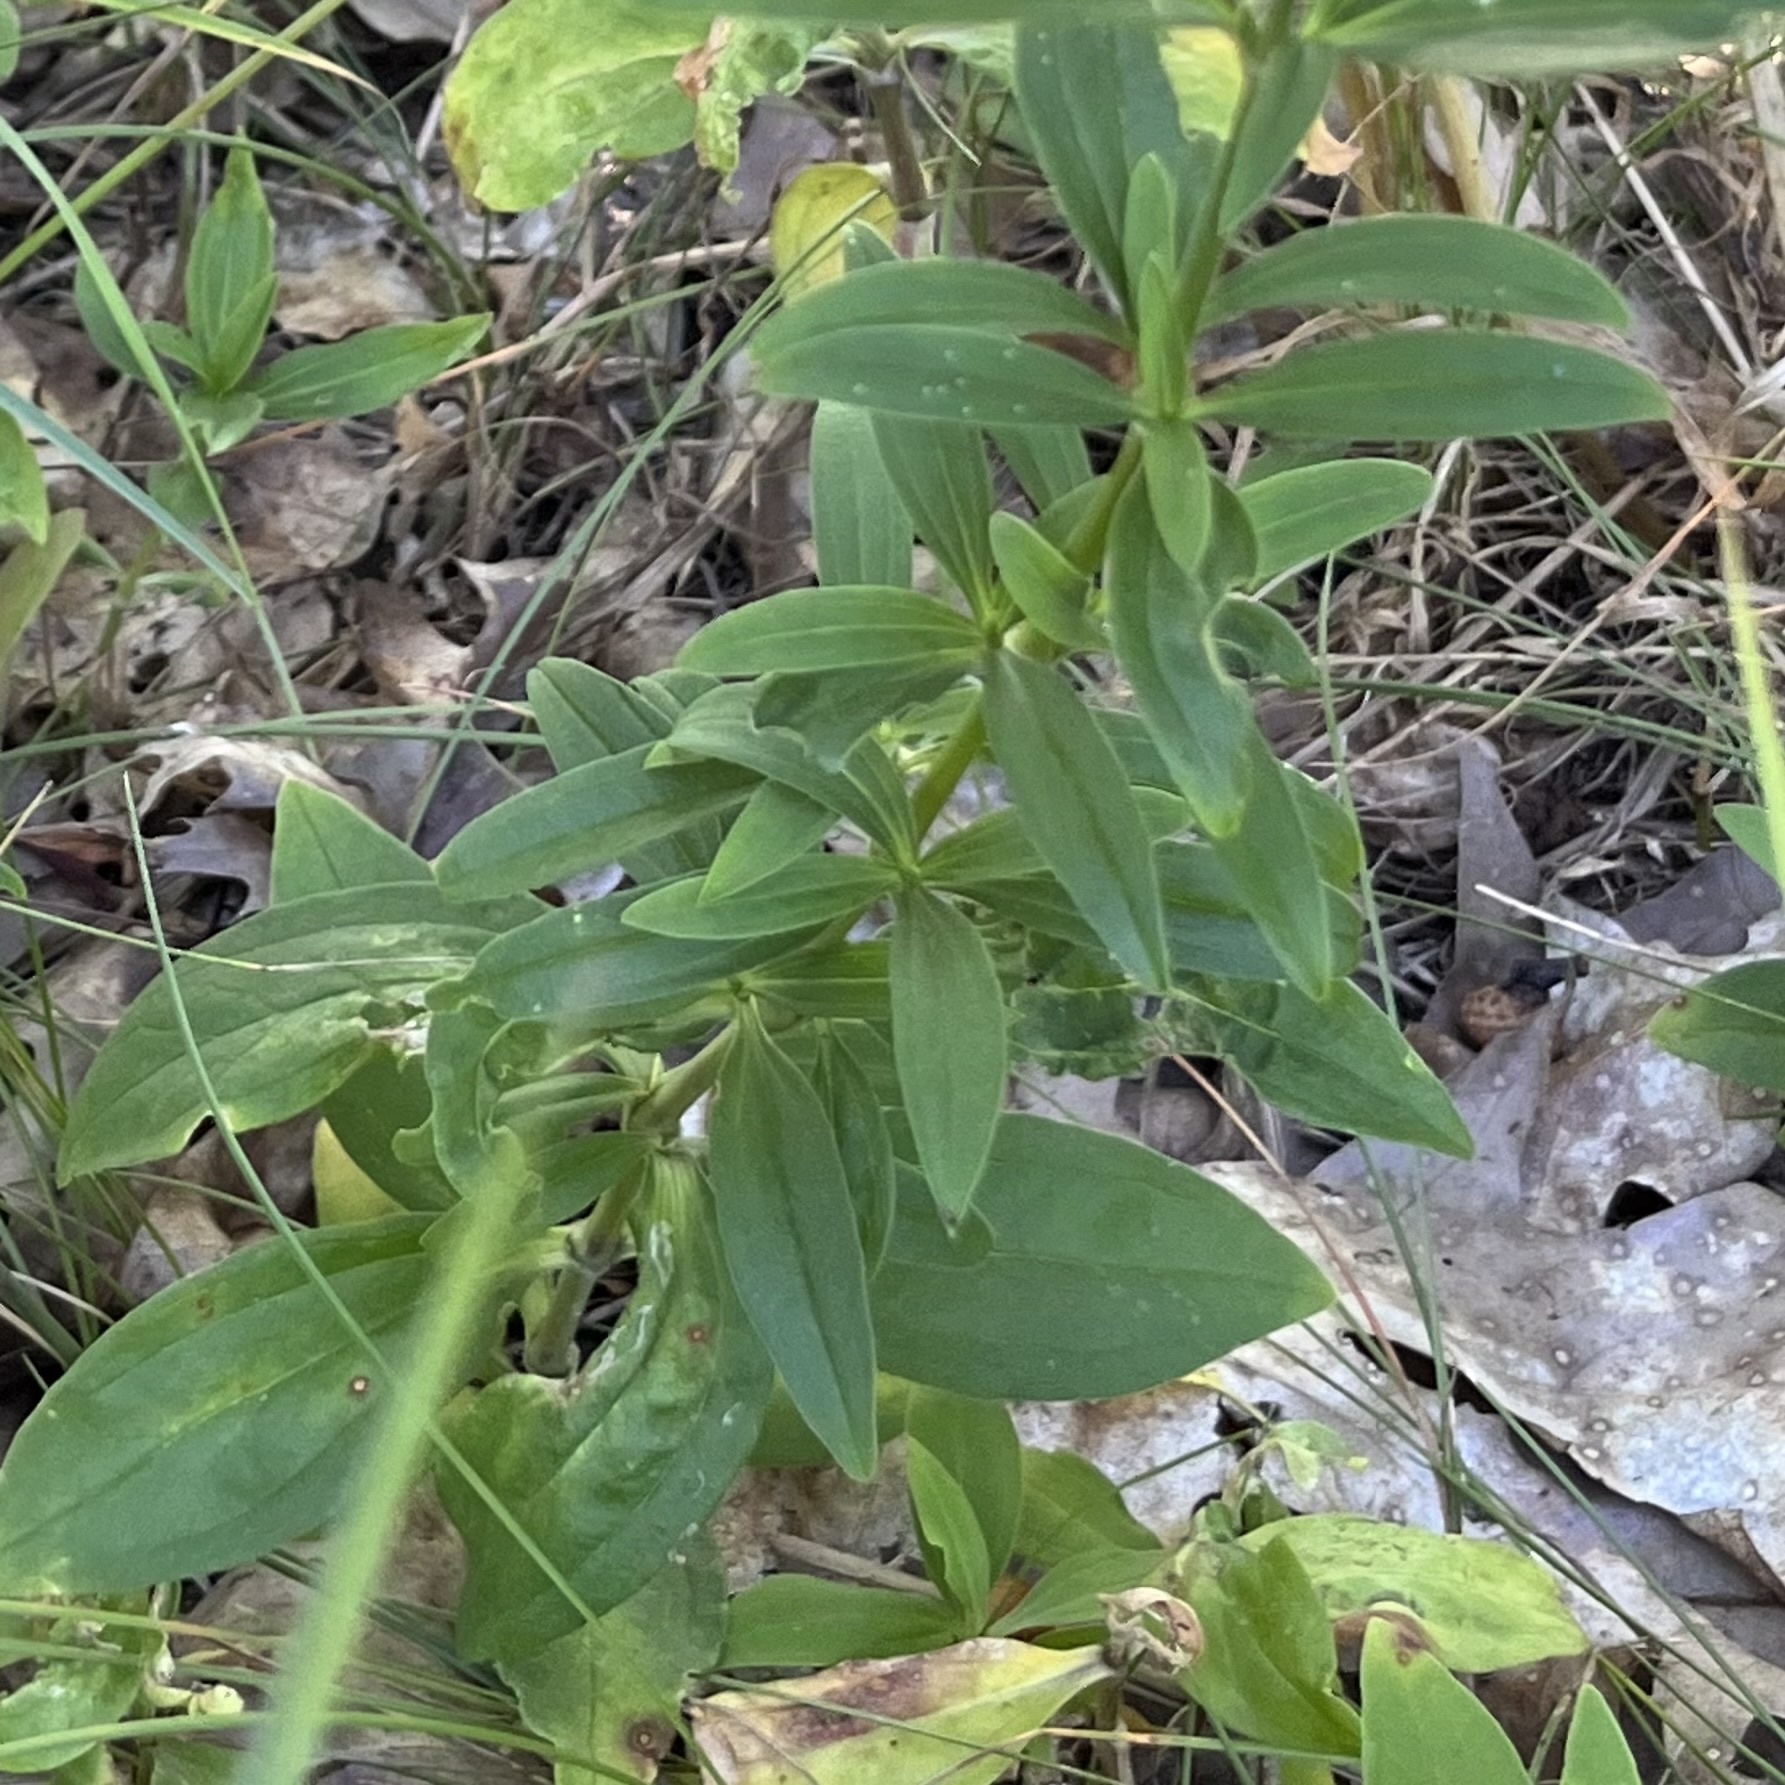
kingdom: Plantae
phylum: Tracheophyta
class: Magnoliopsida
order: Caryophyllales
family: Caryophyllaceae
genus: Saponaria
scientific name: Saponaria officinalis
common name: Soapwort
